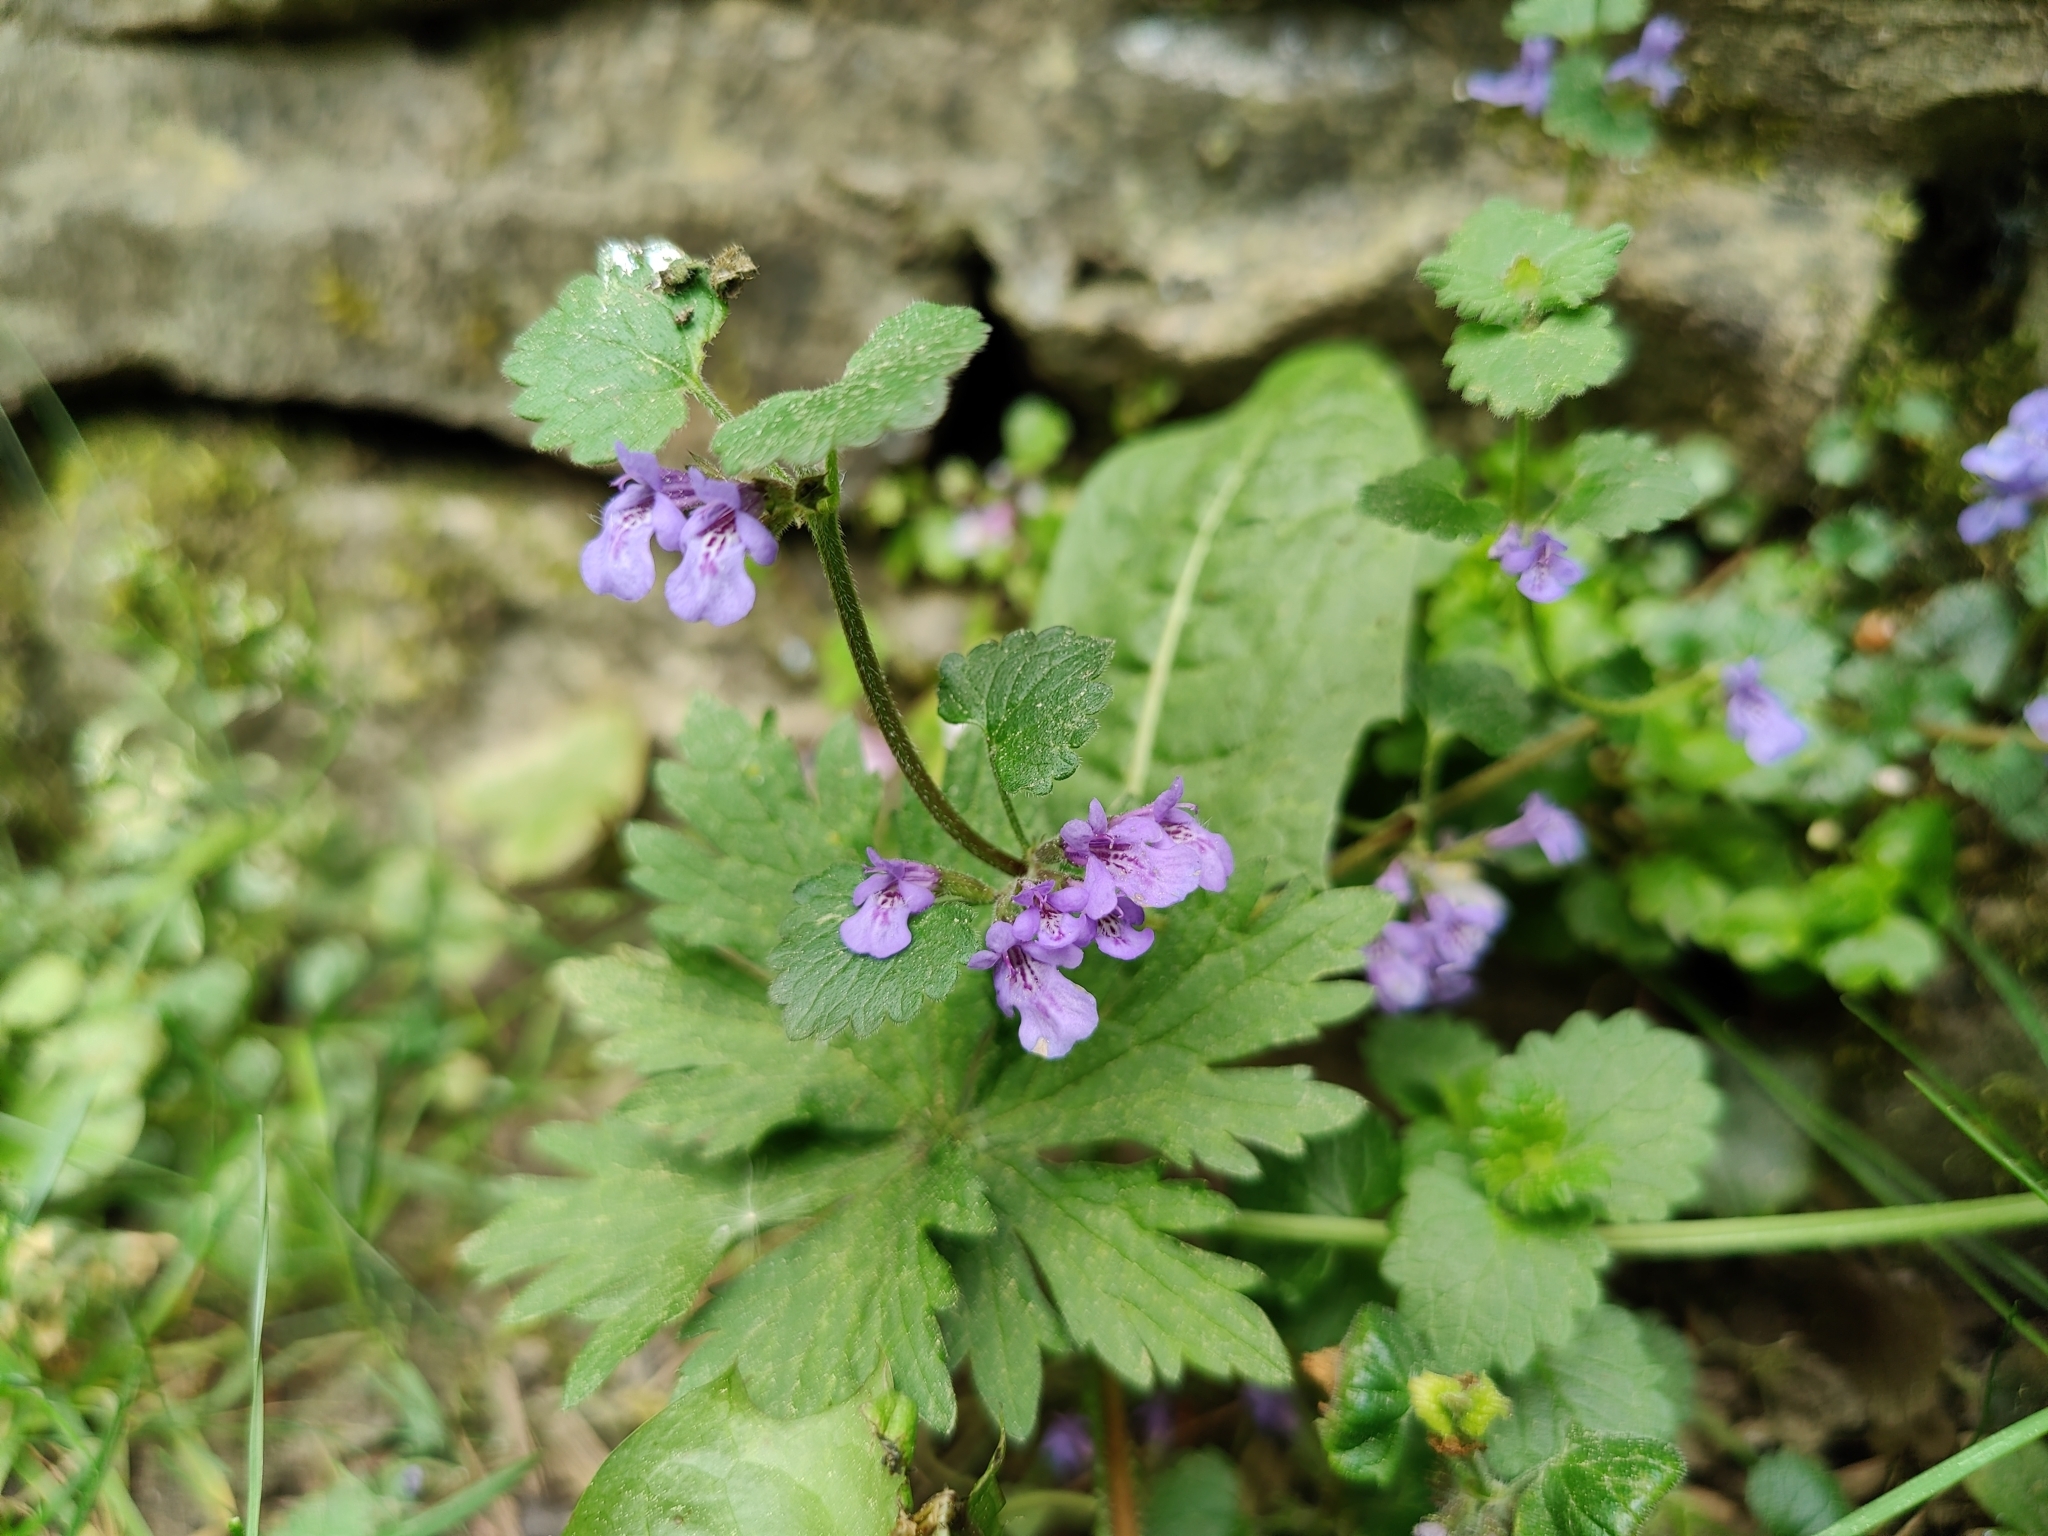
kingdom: Plantae
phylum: Tracheophyta
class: Magnoliopsida
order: Lamiales
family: Lamiaceae
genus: Glechoma
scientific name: Glechoma hederacea
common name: Ground ivy
